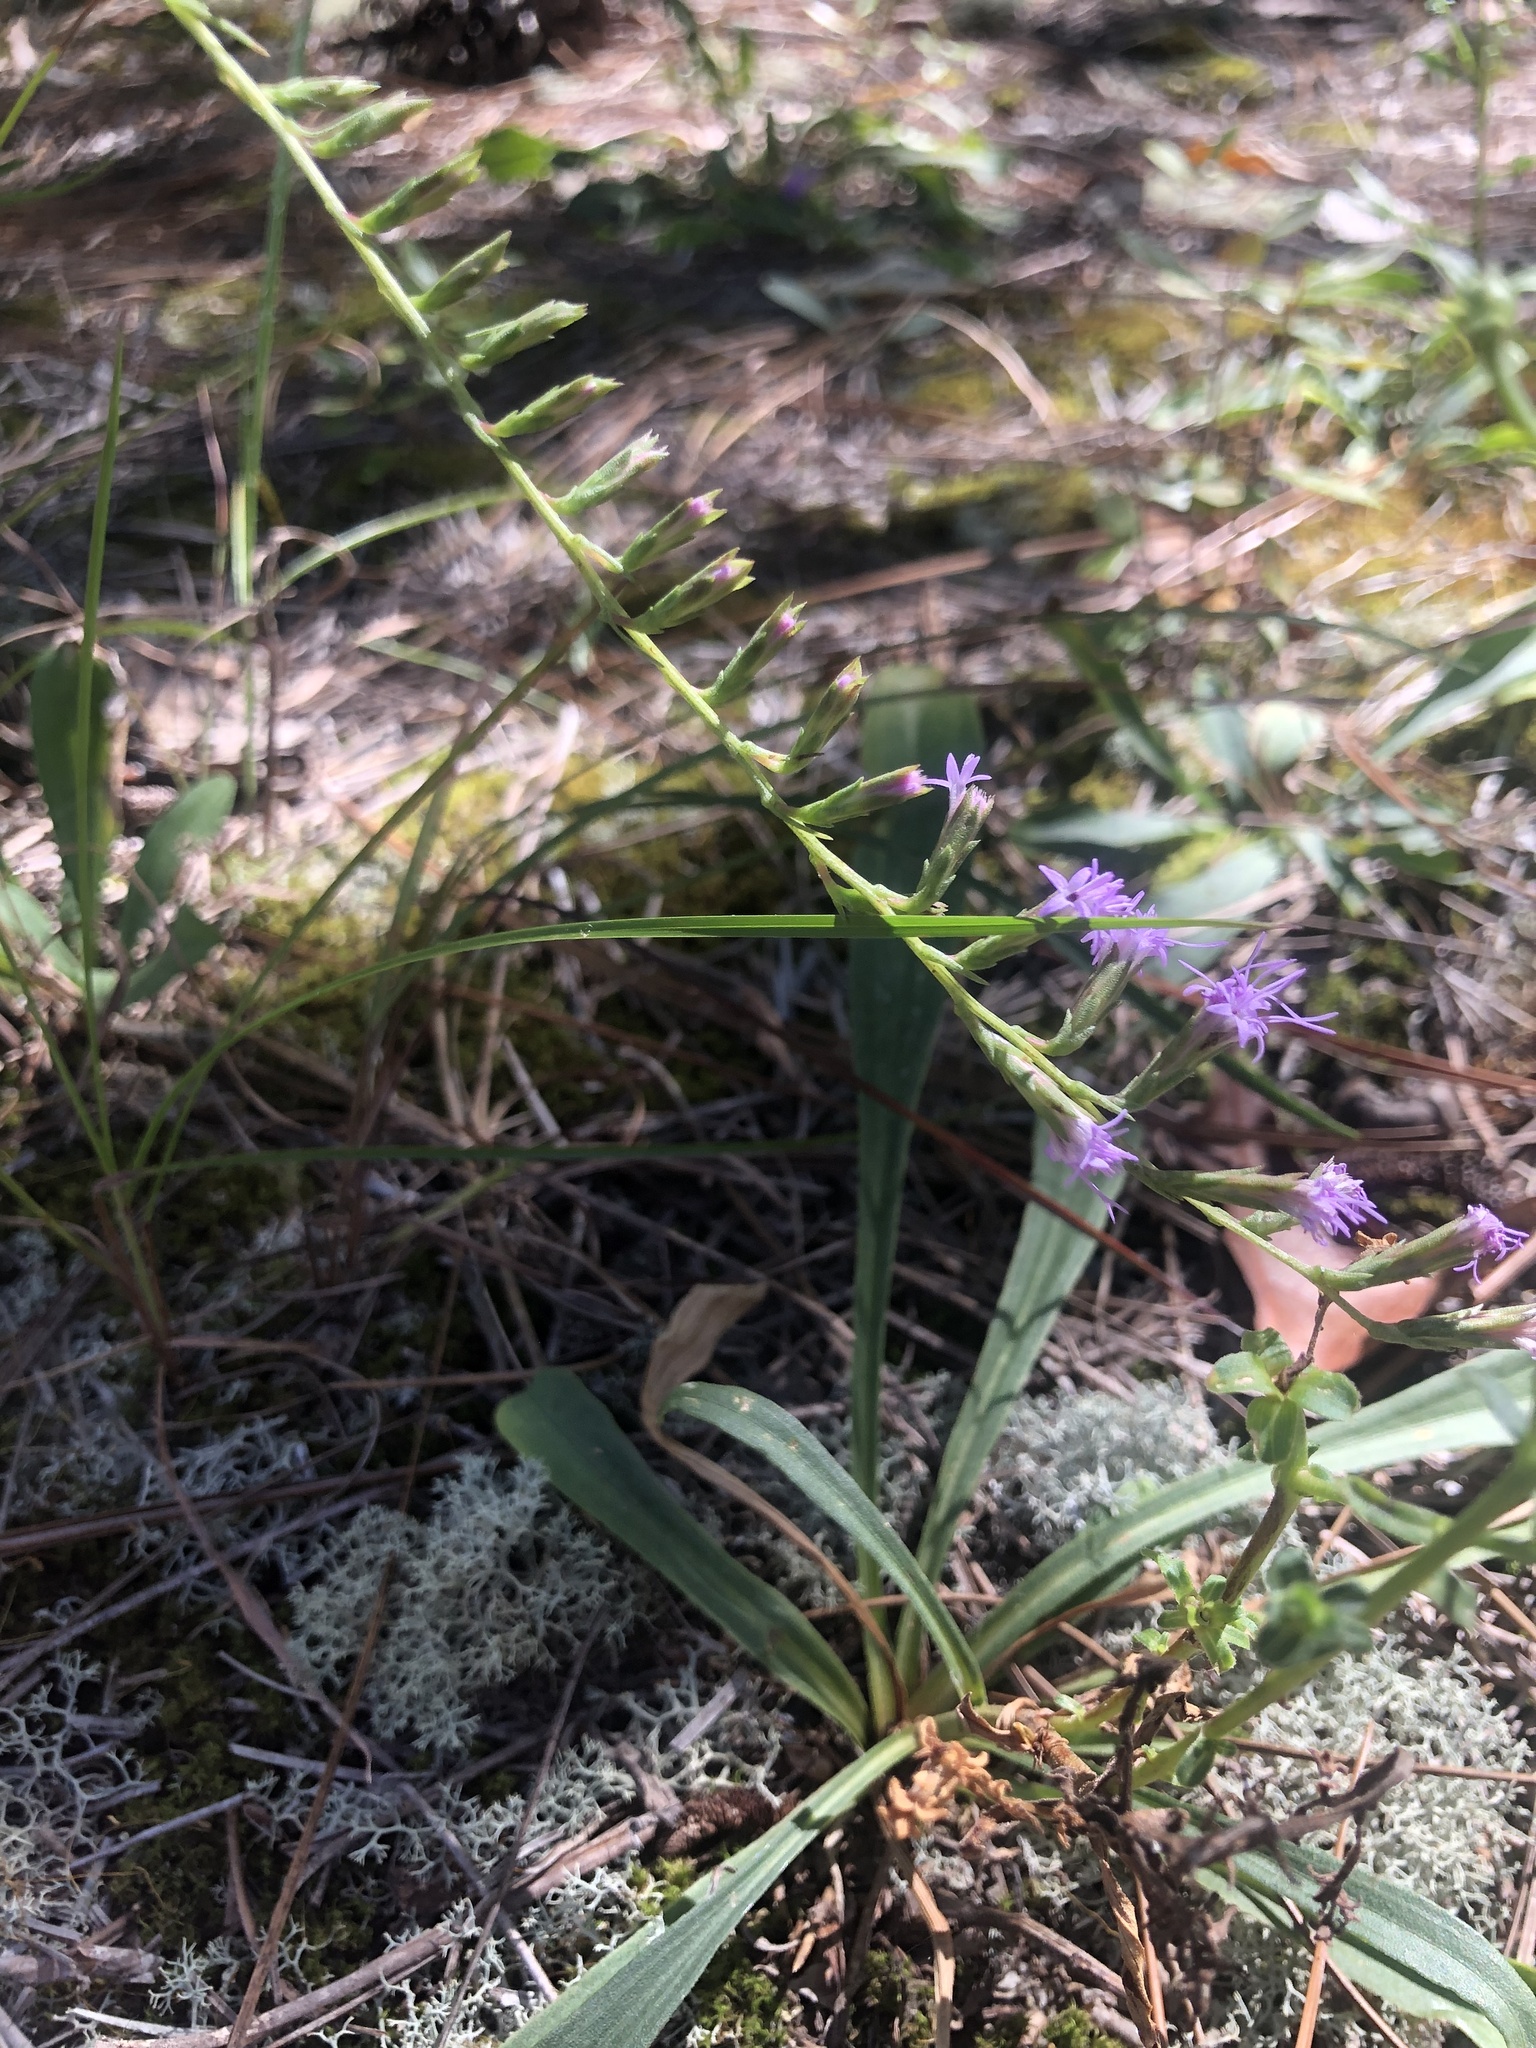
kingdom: Plantae
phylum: Tracheophyta
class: Magnoliopsida
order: Asterales
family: Asteraceae
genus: Liatris
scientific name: Liatris cokeri
